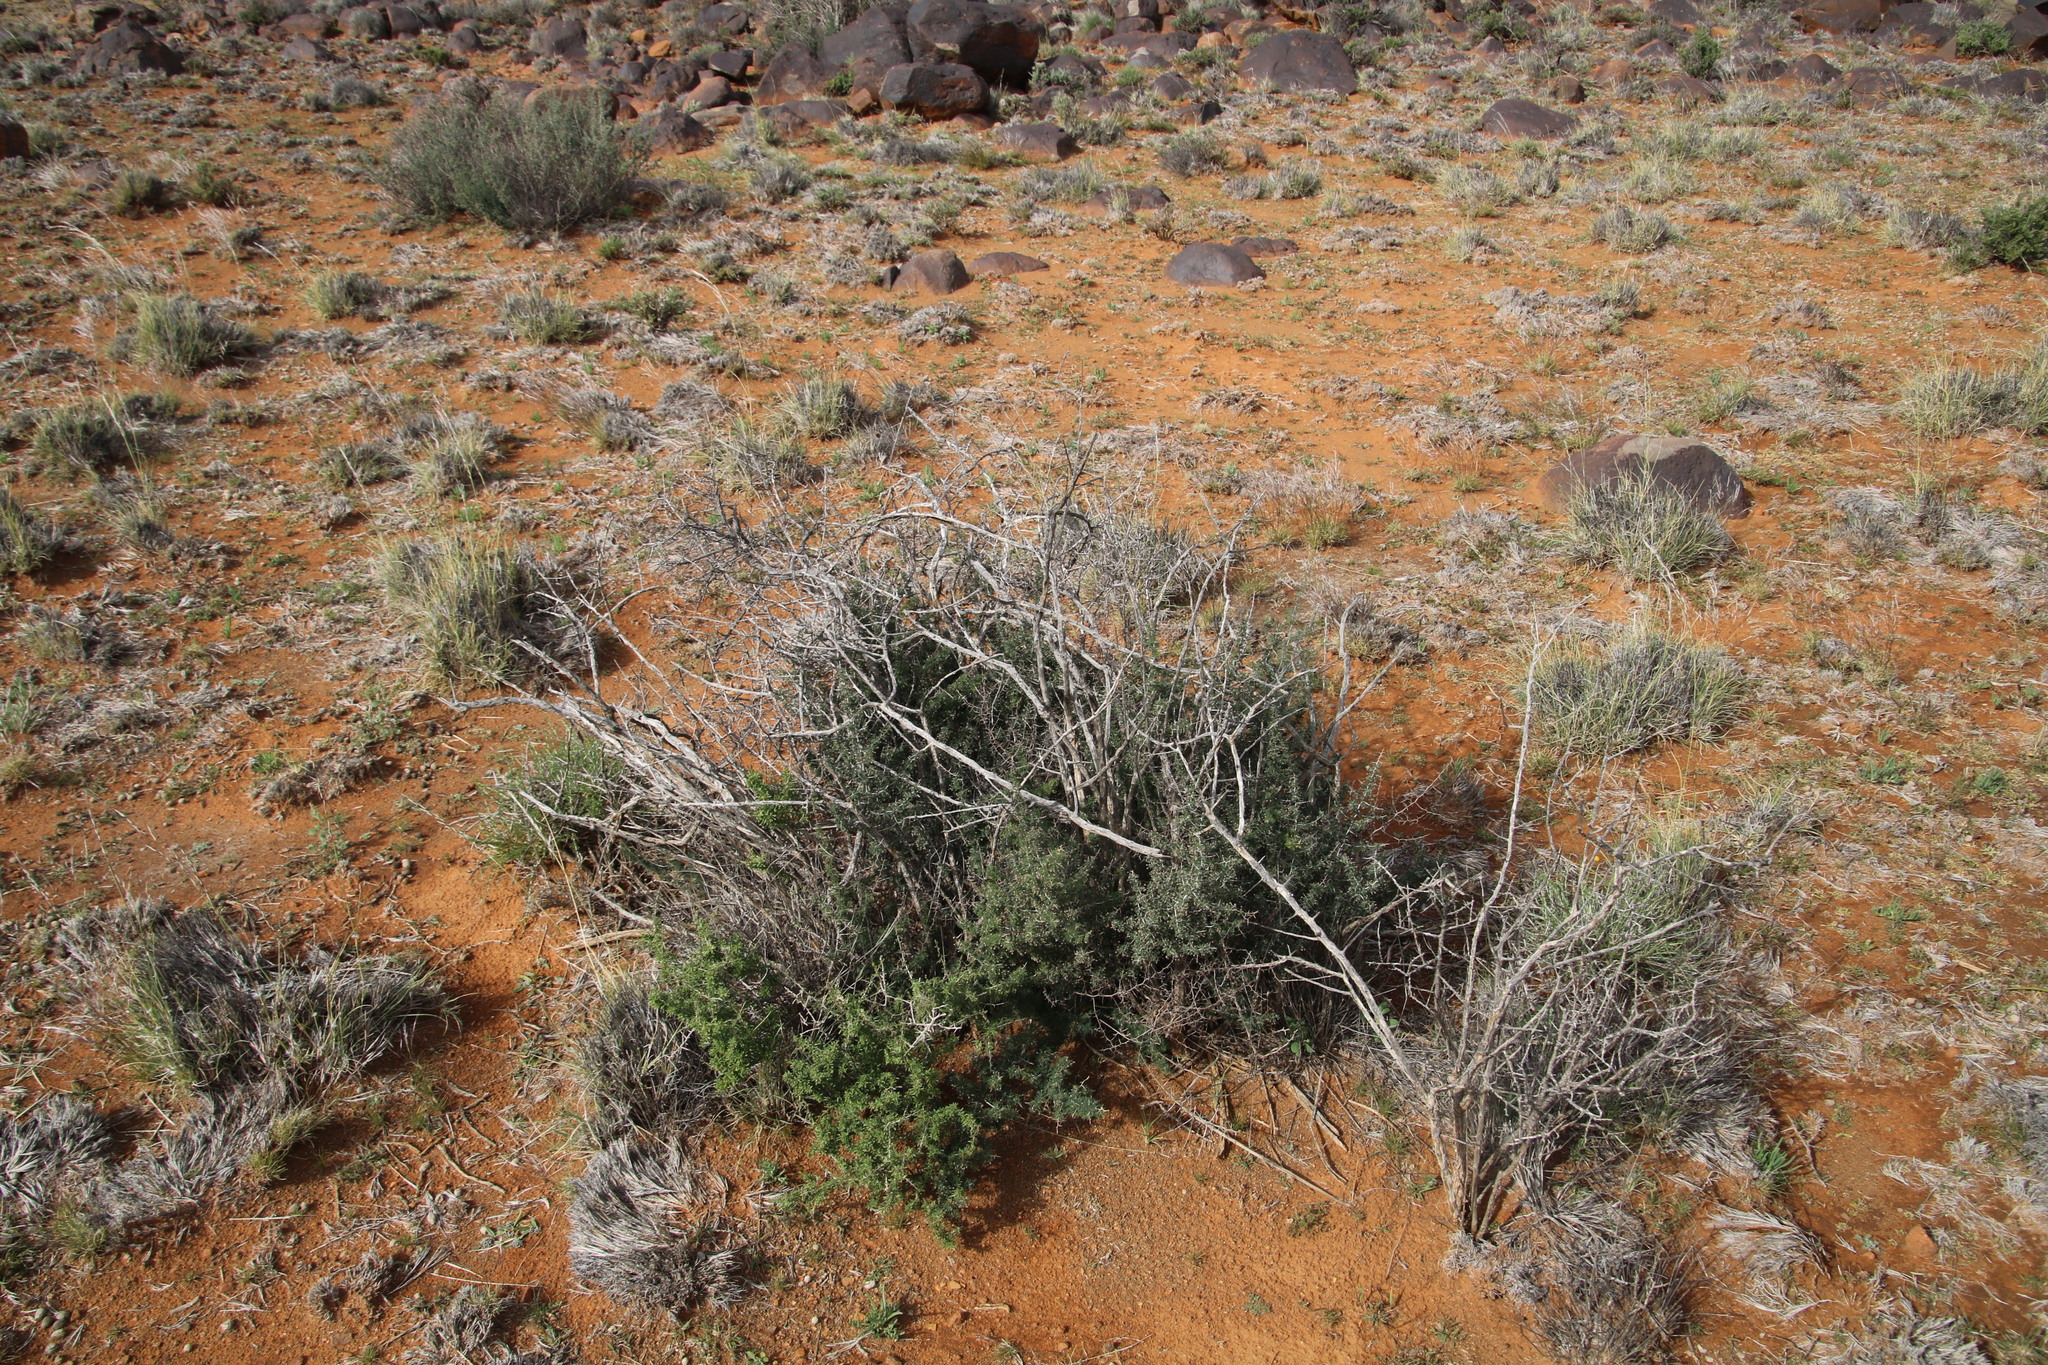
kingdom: Plantae
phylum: Tracheophyta
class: Liliopsida
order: Asparagales
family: Asparagaceae
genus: Asparagus
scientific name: Asparagus suaveolens
